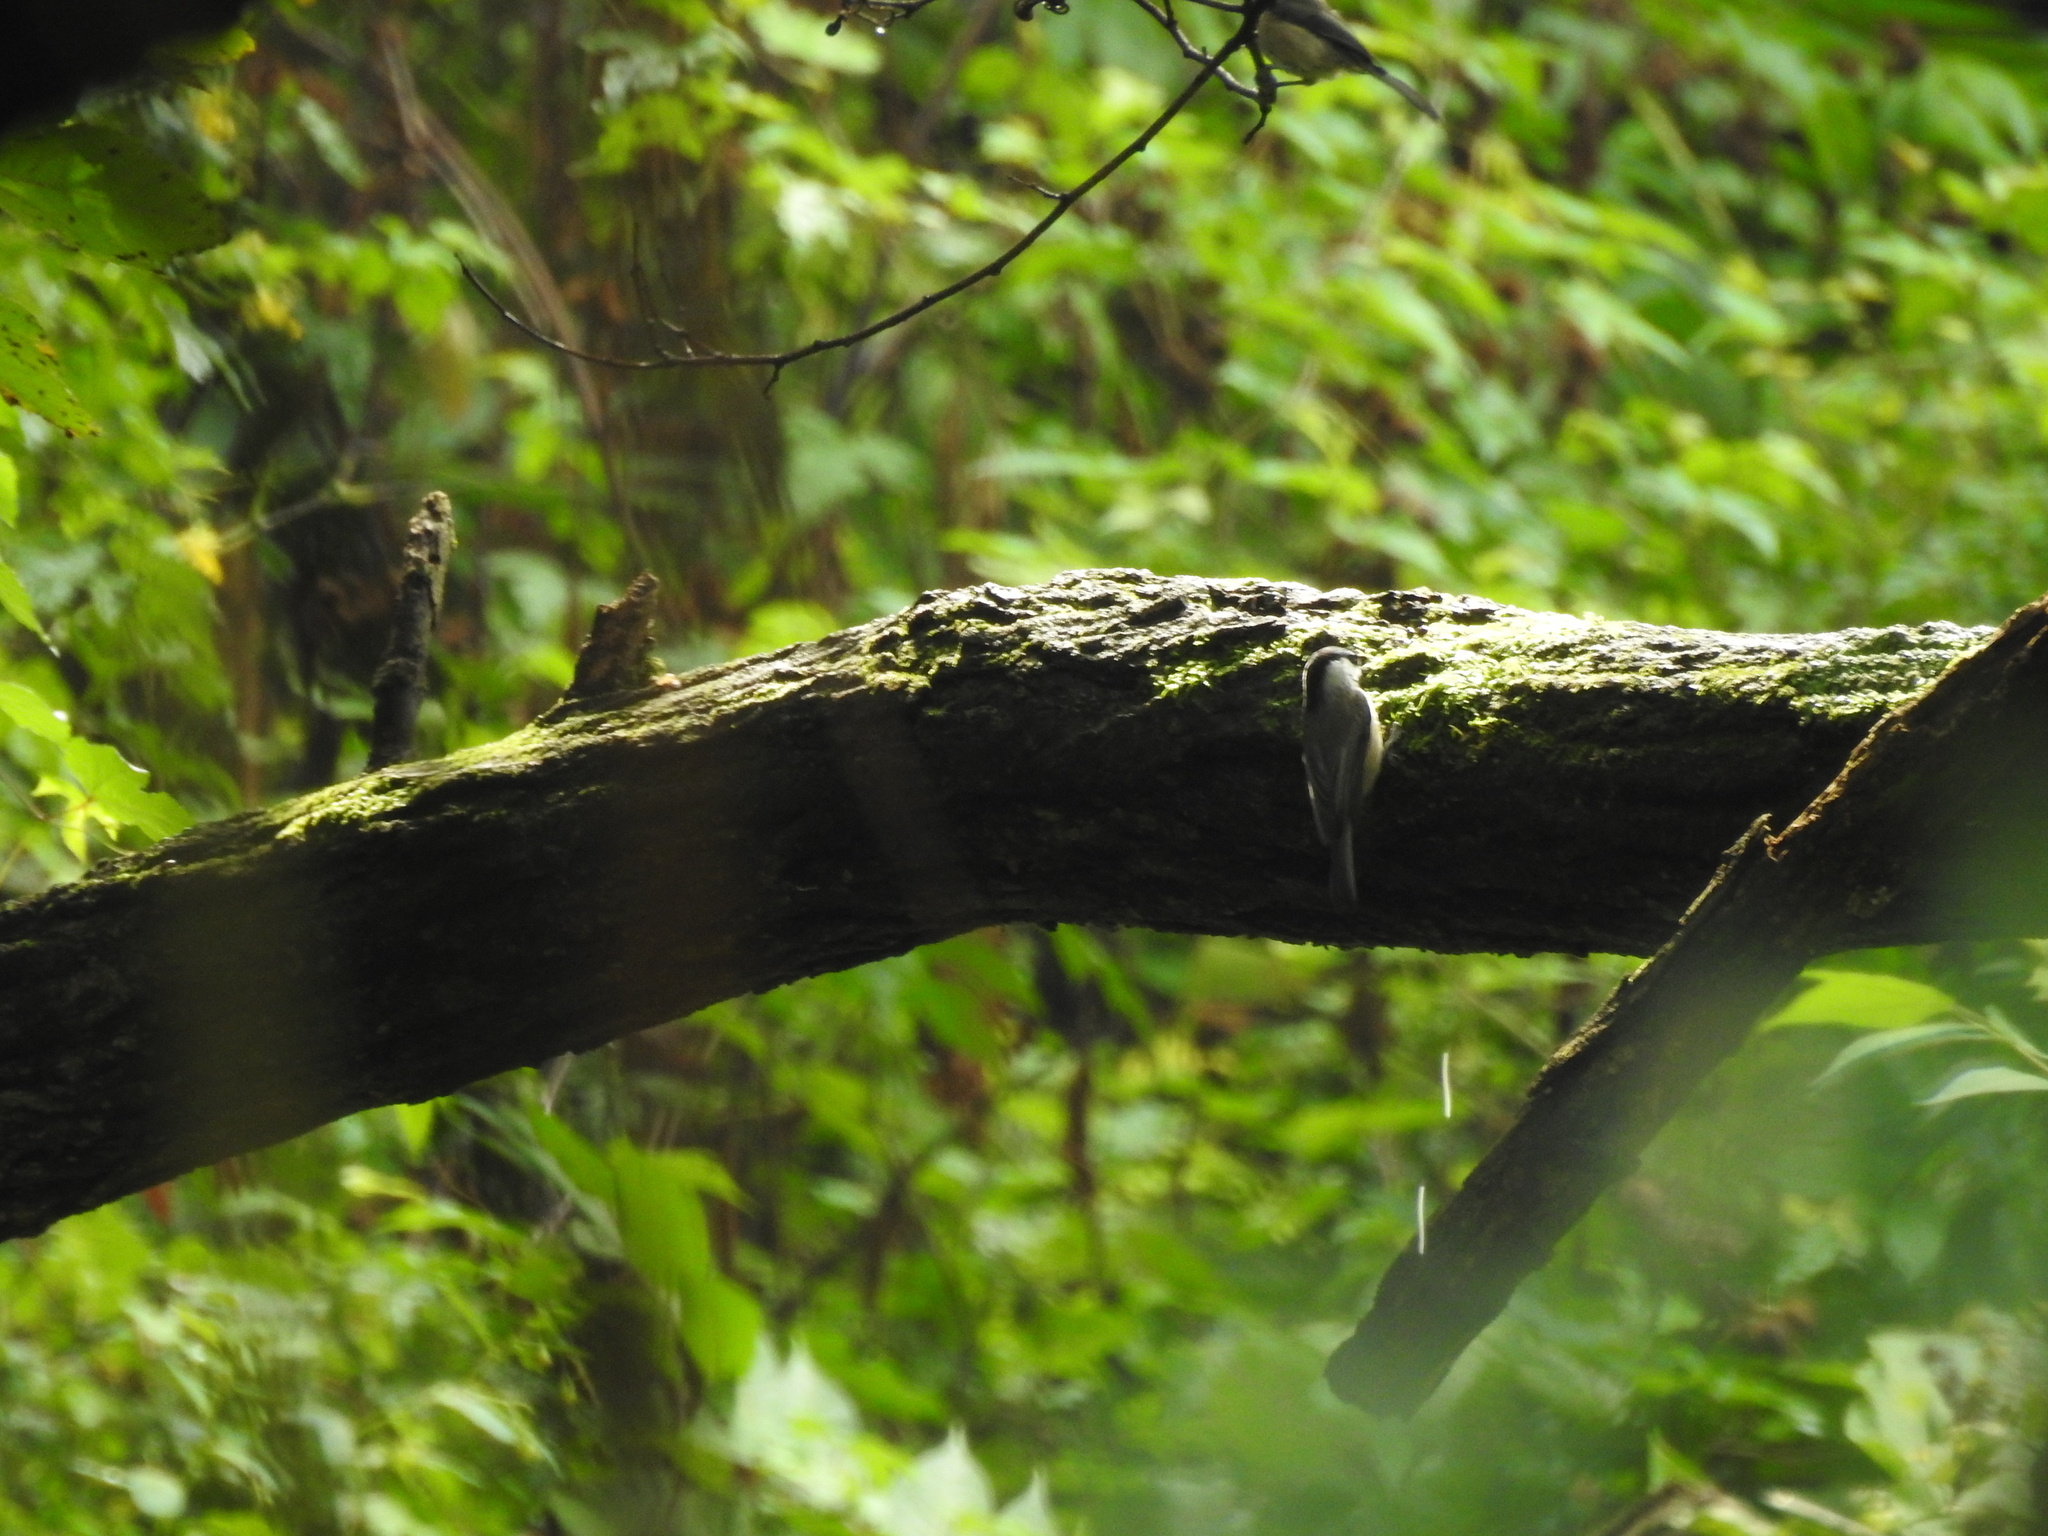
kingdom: Animalia
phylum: Chordata
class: Aves
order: Passeriformes
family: Paridae
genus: Poecile
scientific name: Poecile carolinensis
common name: Carolina chickadee
